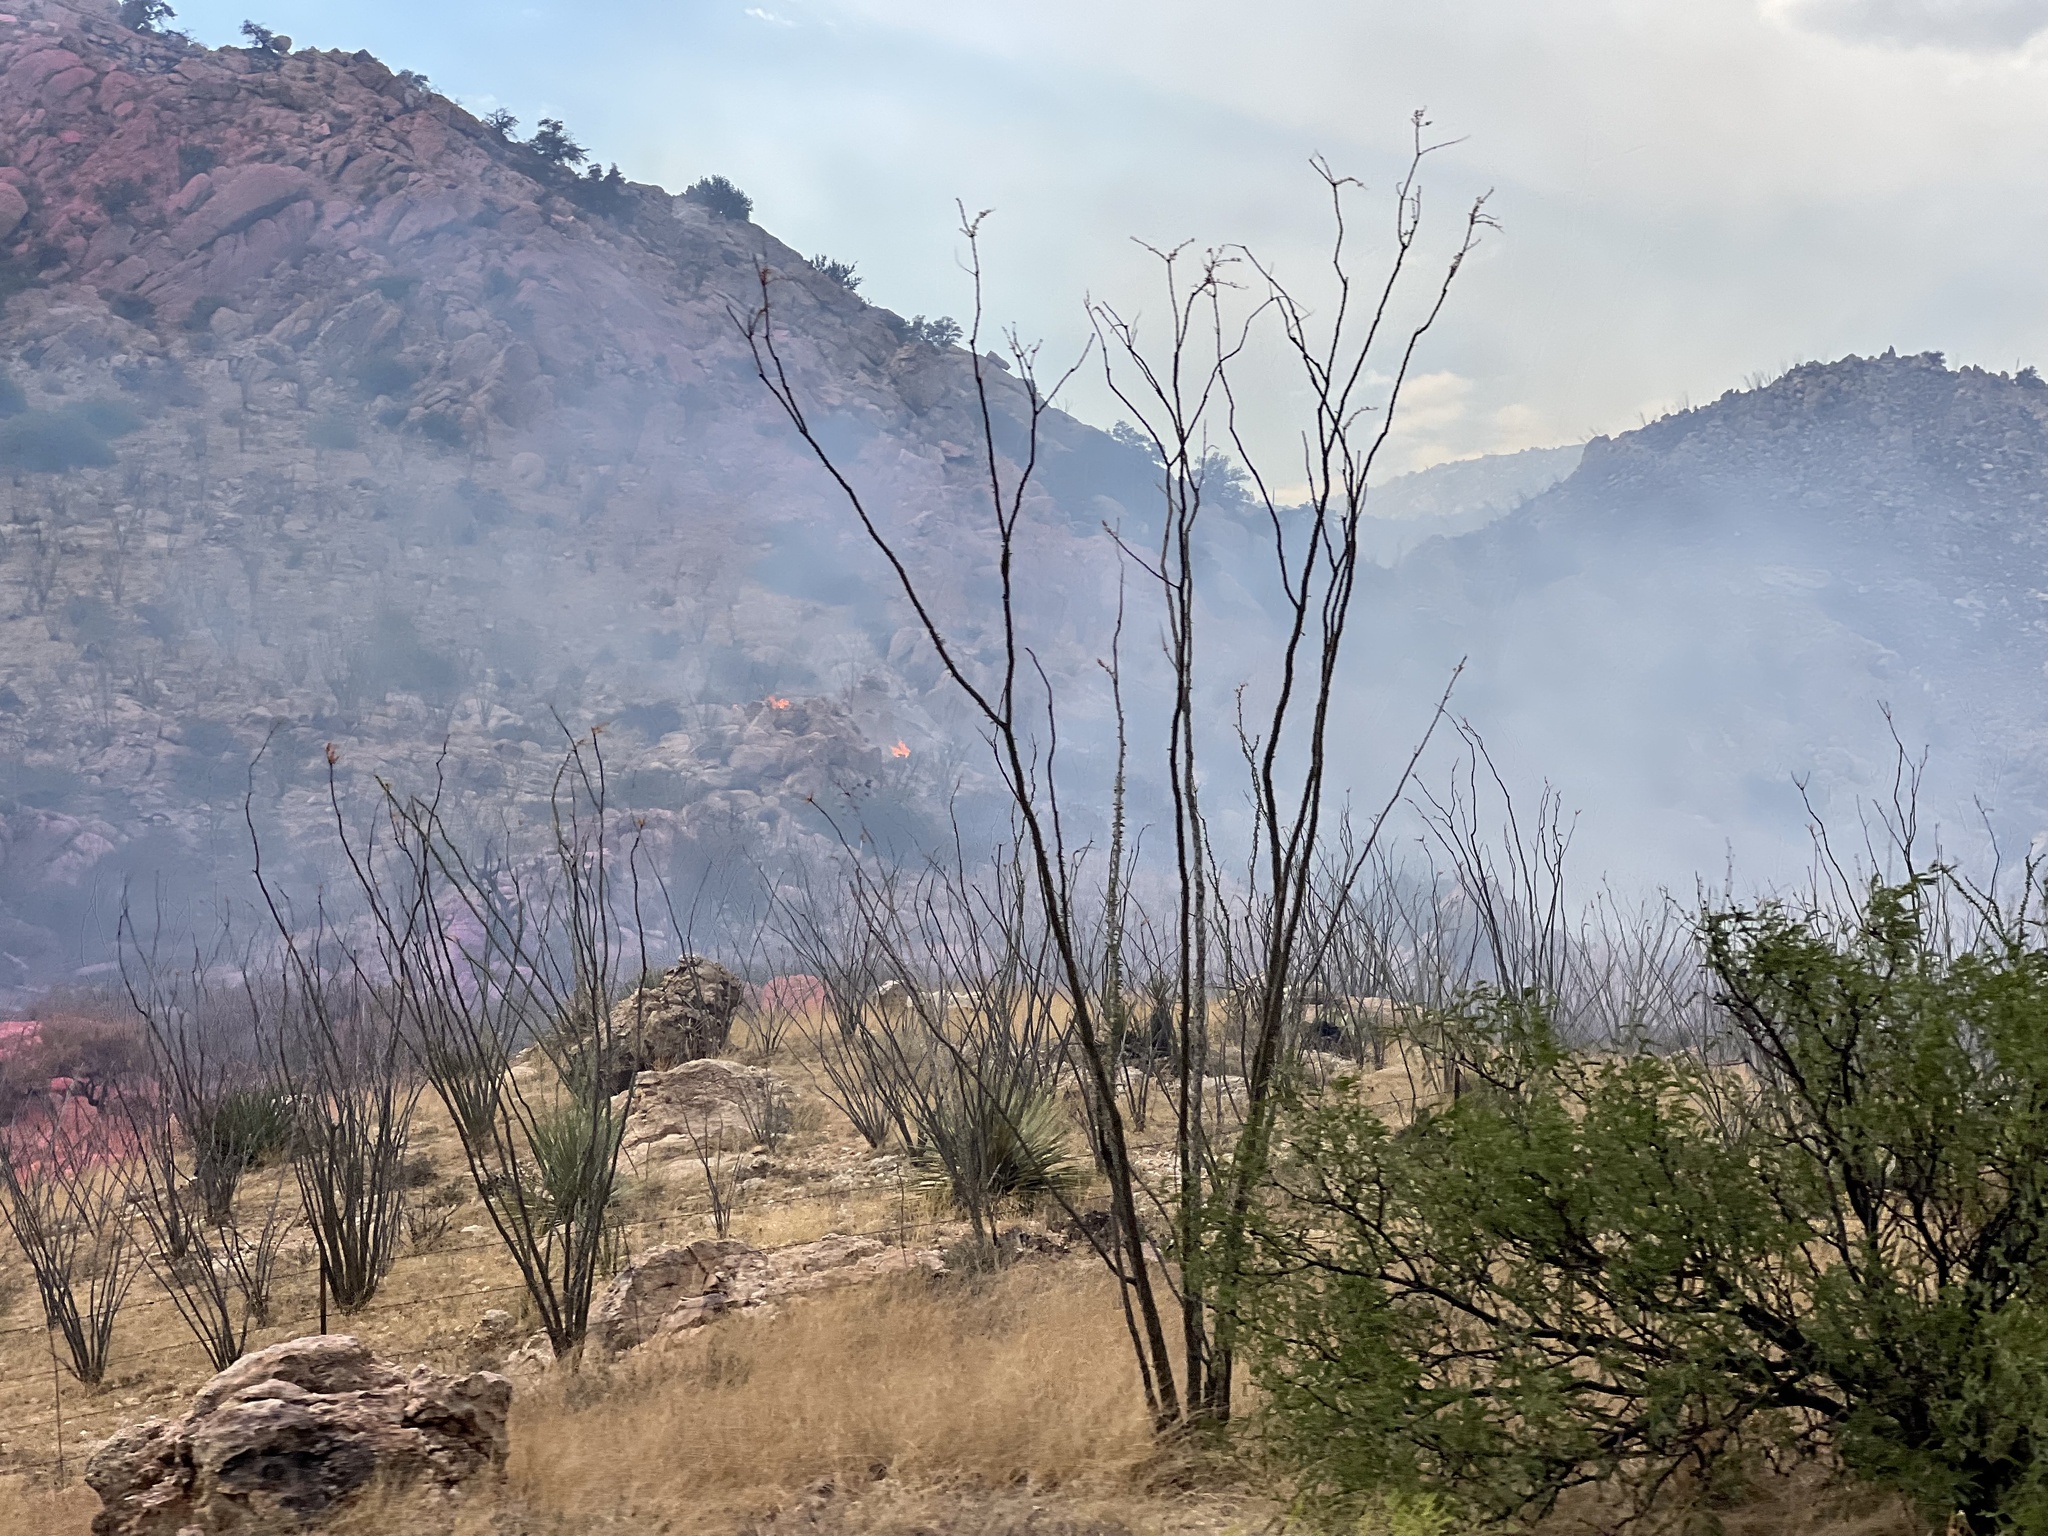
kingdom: Plantae
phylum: Tracheophyta
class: Magnoliopsida
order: Ericales
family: Fouquieriaceae
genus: Fouquieria
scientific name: Fouquieria splendens
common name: Vine-cactus
